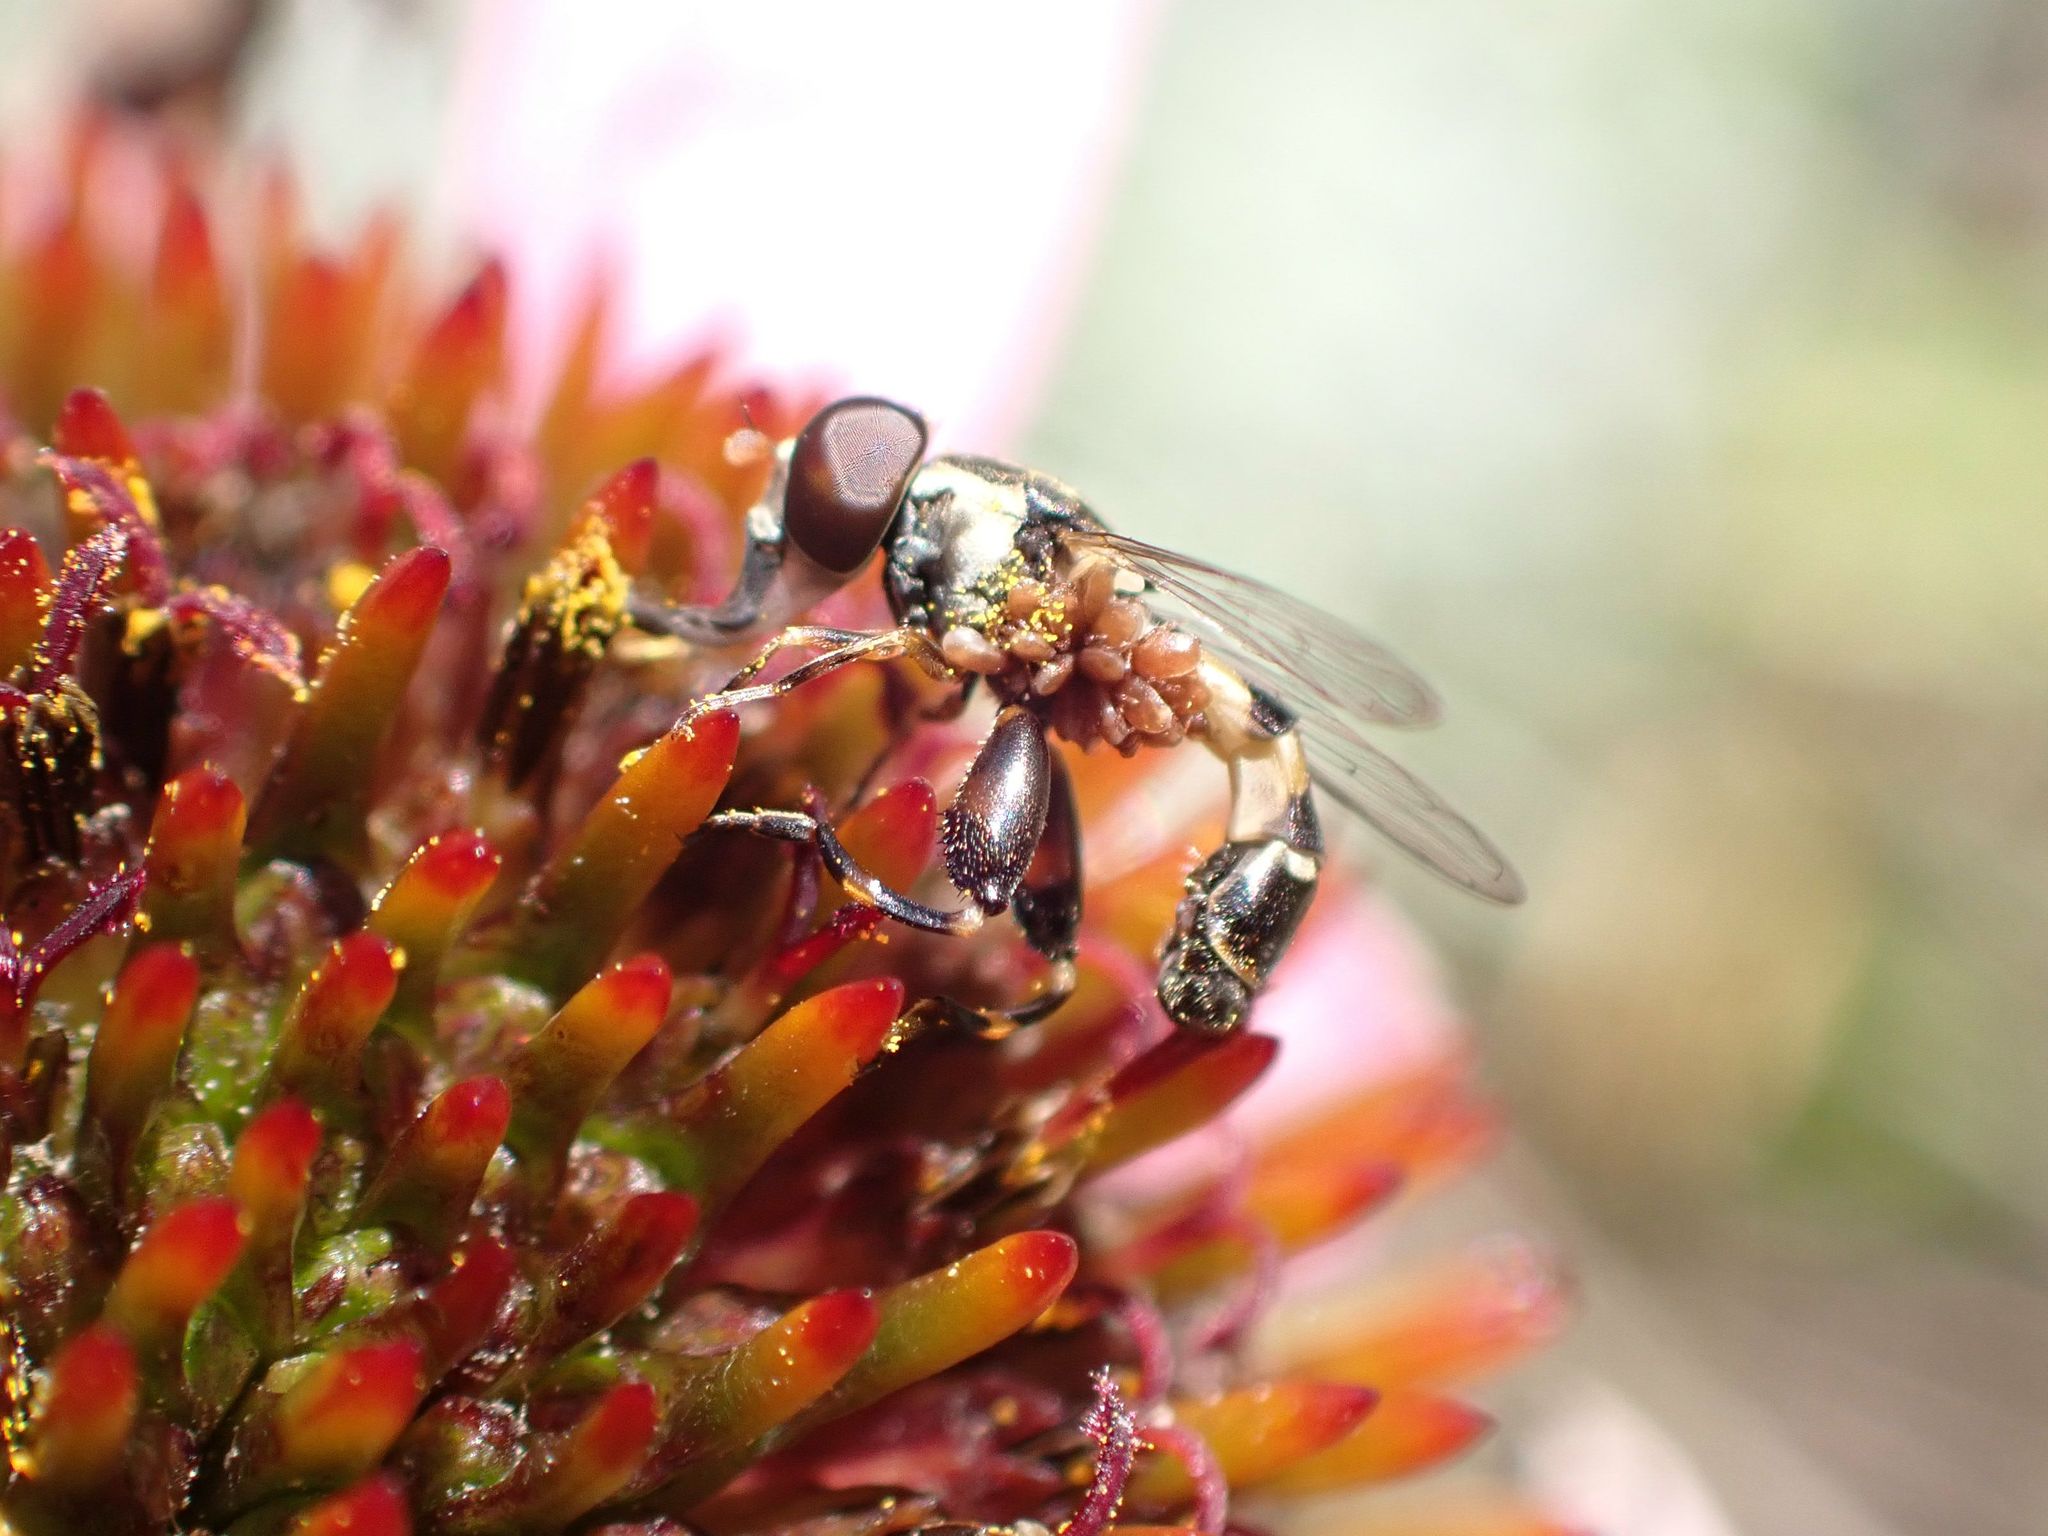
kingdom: Animalia
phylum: Arthropoda
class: Insecta
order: Diptera
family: Syrphidae
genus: Syritta
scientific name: Syritta pipiens
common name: Hover fly
